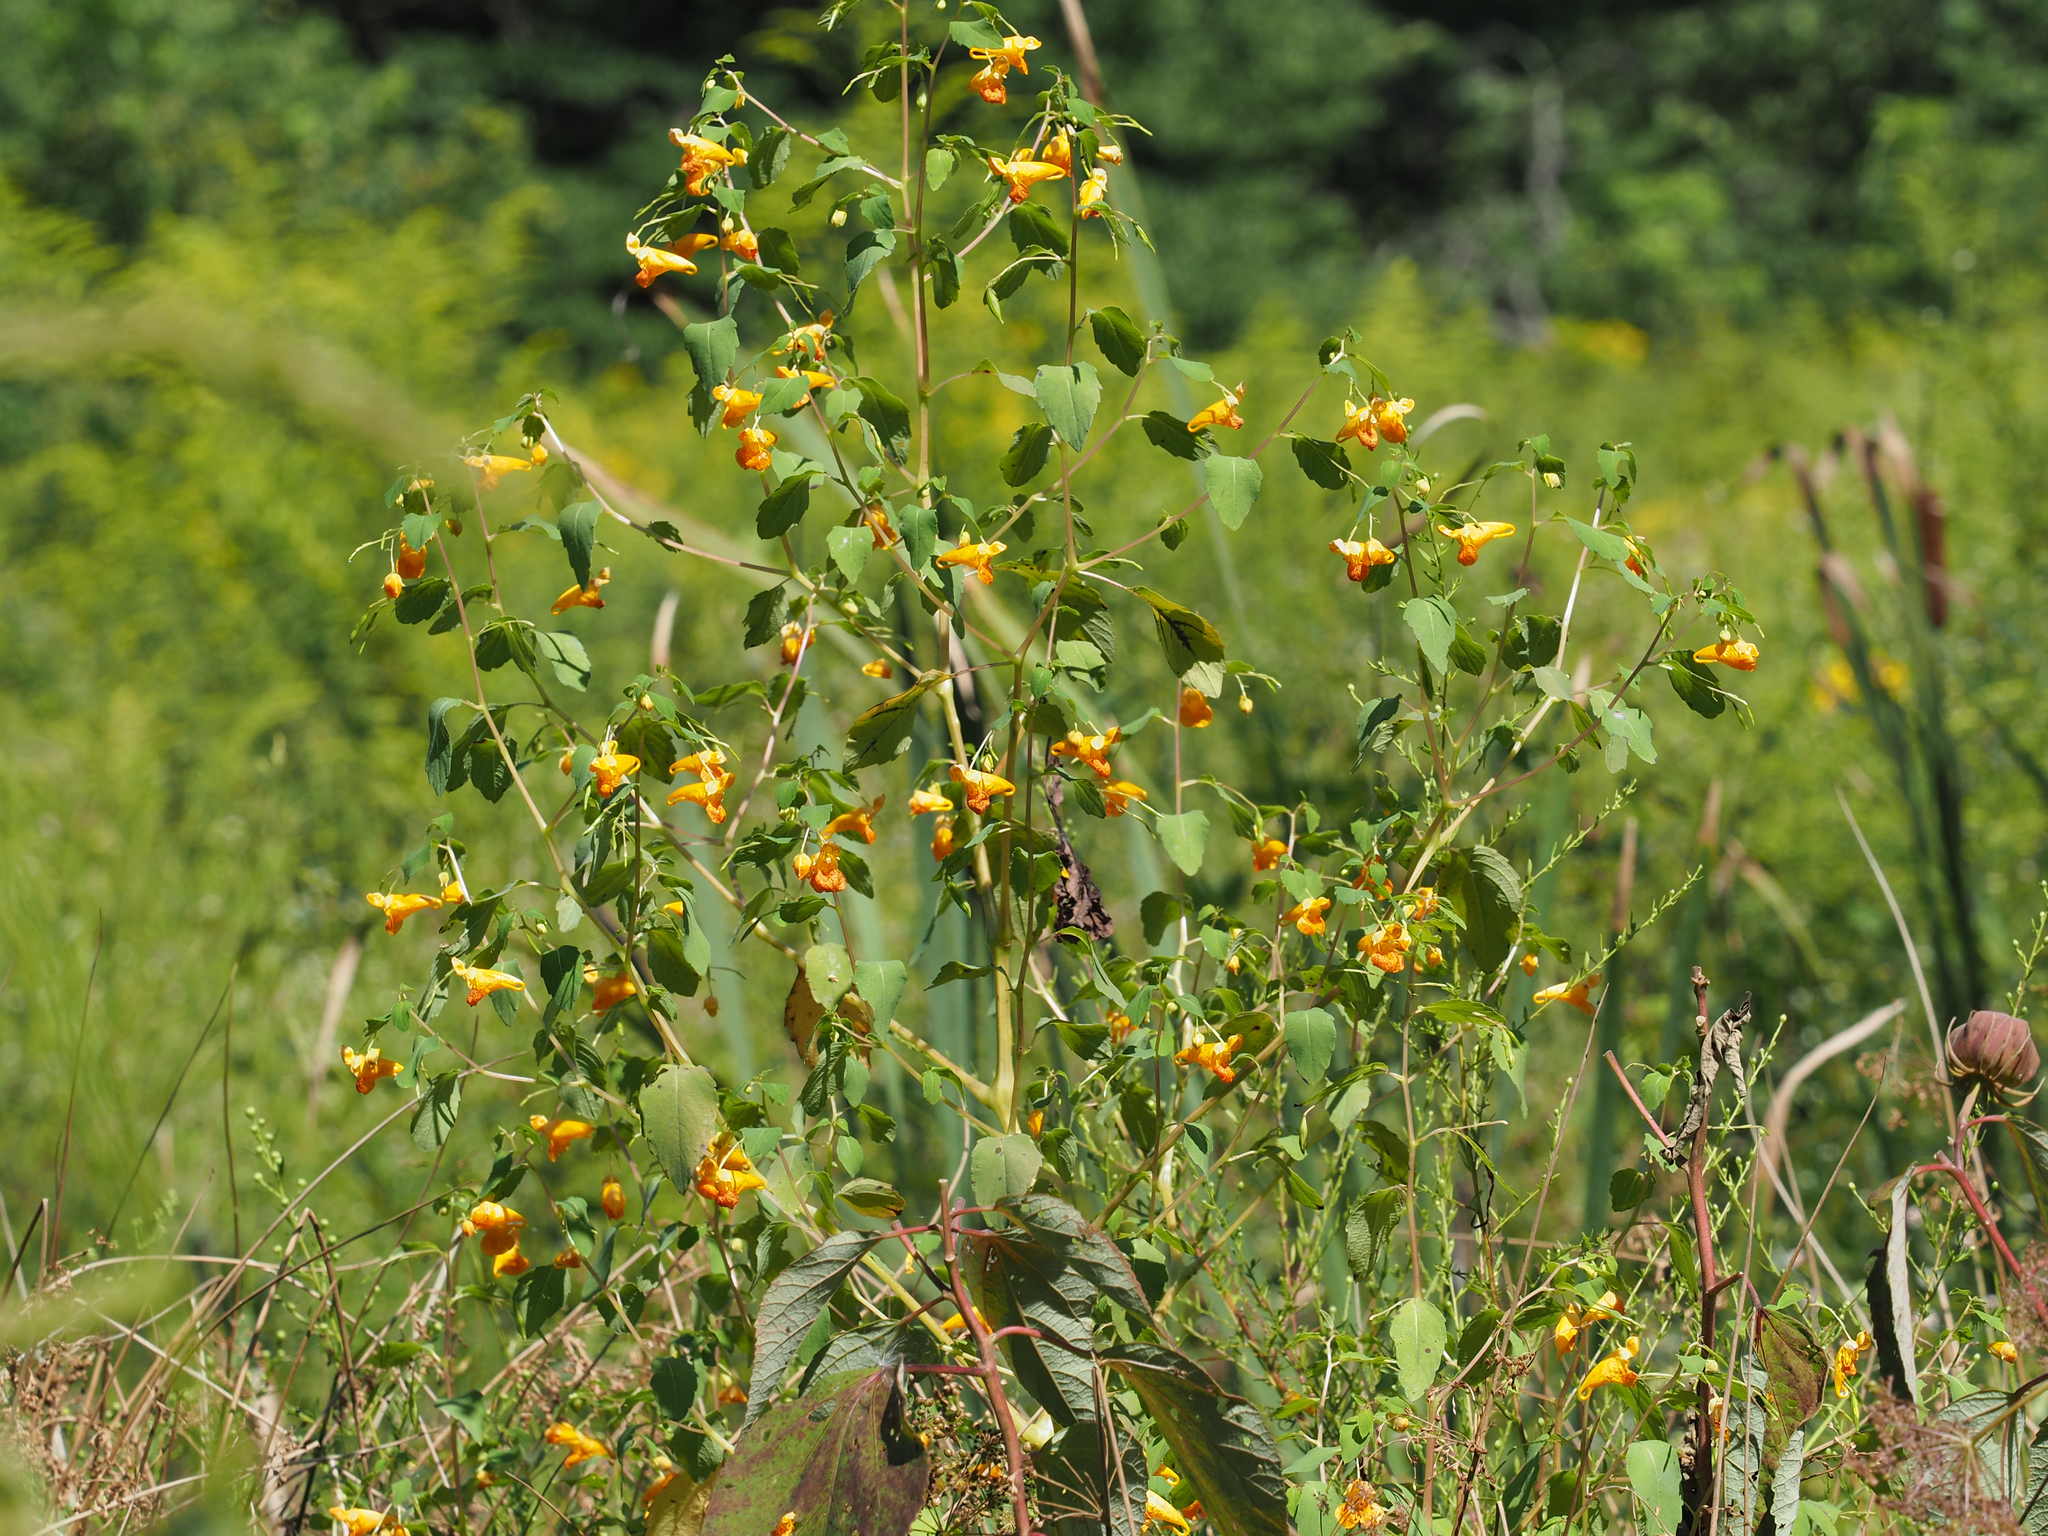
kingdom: Plantae
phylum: Tracheophyta
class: Magnoliopsida
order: Ericales
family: Balsaminaceae
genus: Impatiens
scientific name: Impatiens capensis
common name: Orange balsam
